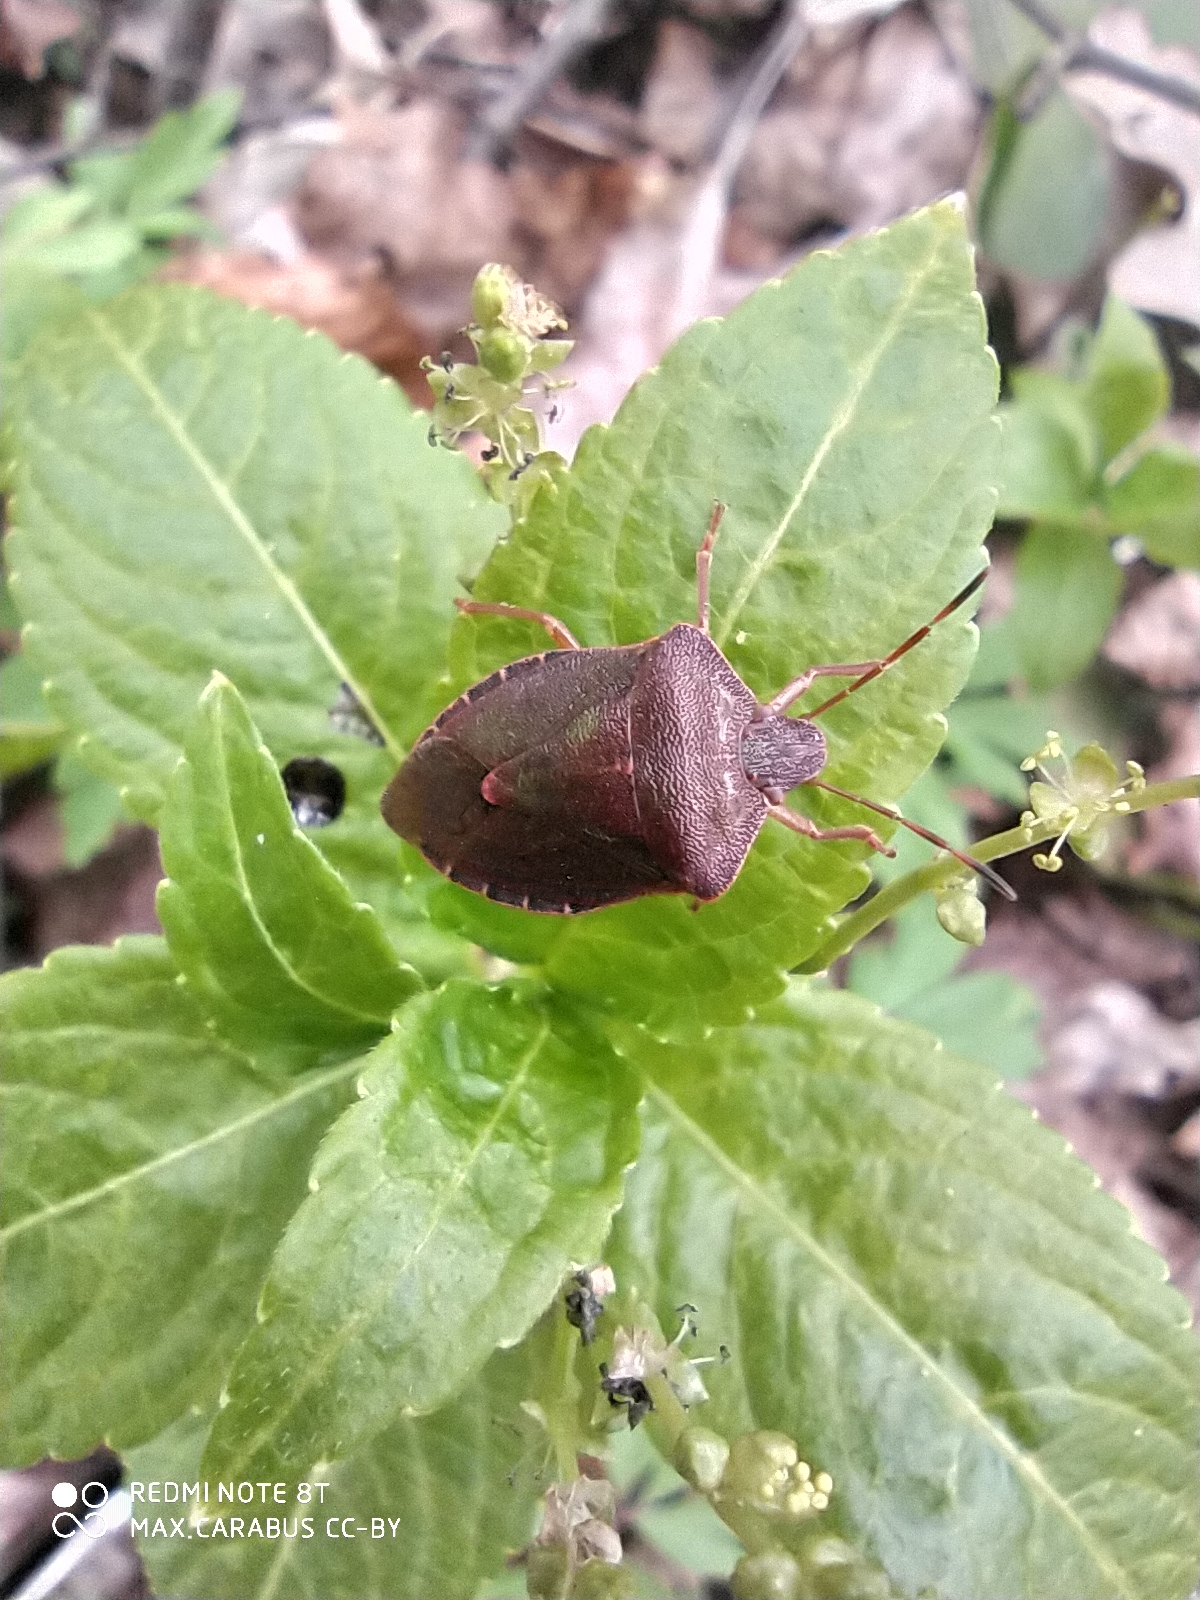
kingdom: Animalia
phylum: Arthropoda
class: Insecta
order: Hemiptera
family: Pentatomidae
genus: Palomena
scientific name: Palomena prasina
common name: Green shieldbug
